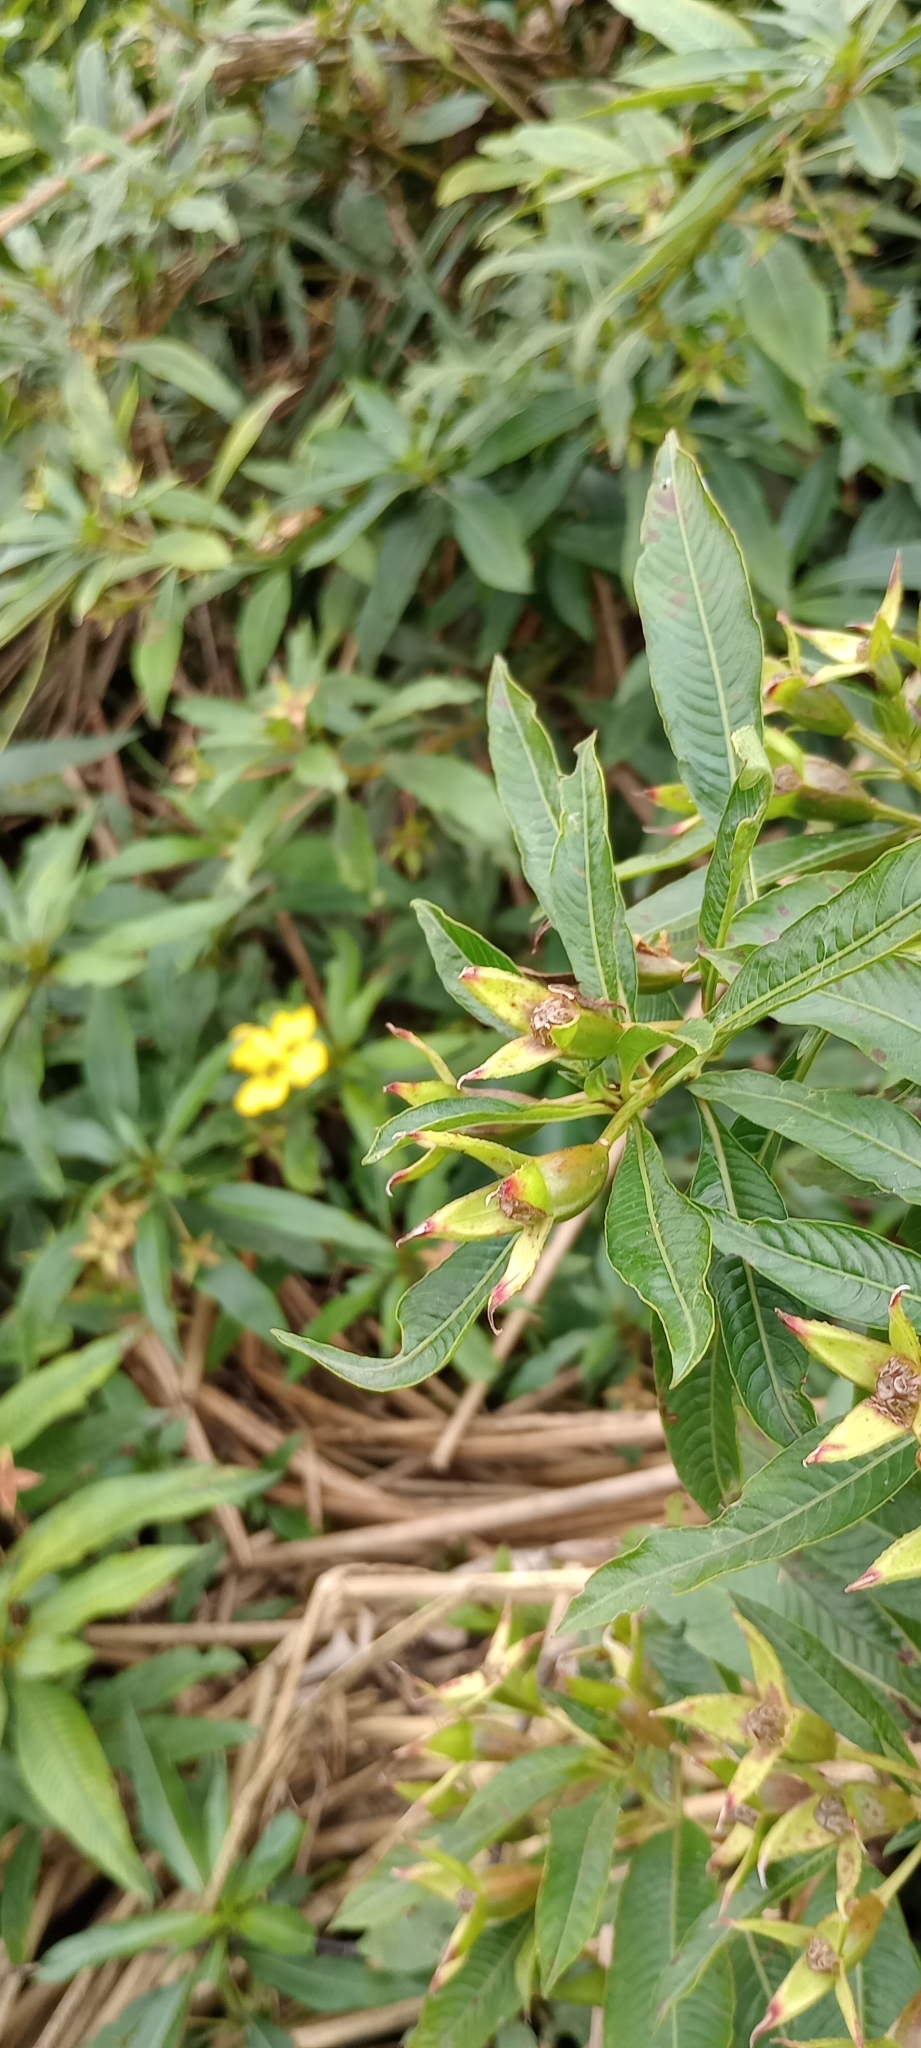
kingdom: Plantae
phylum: Tracheophyta
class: Magnoliopsida
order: Myrtales
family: Onagraceae
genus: Ludwigia
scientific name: Ludwigia elegans
